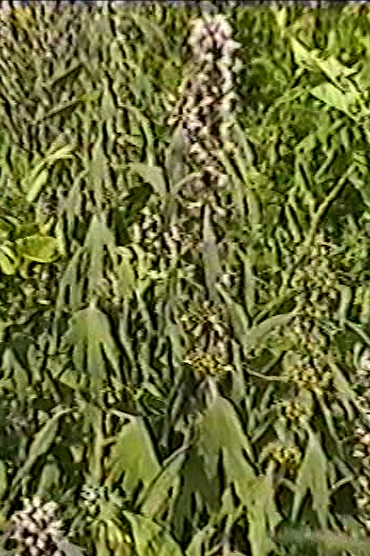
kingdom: Plantae
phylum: Tracheophyta
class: Magnoliopsida
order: Lamiales
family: Lamiaceae
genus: Leonurus
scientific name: Leonurus quinquelobatus
